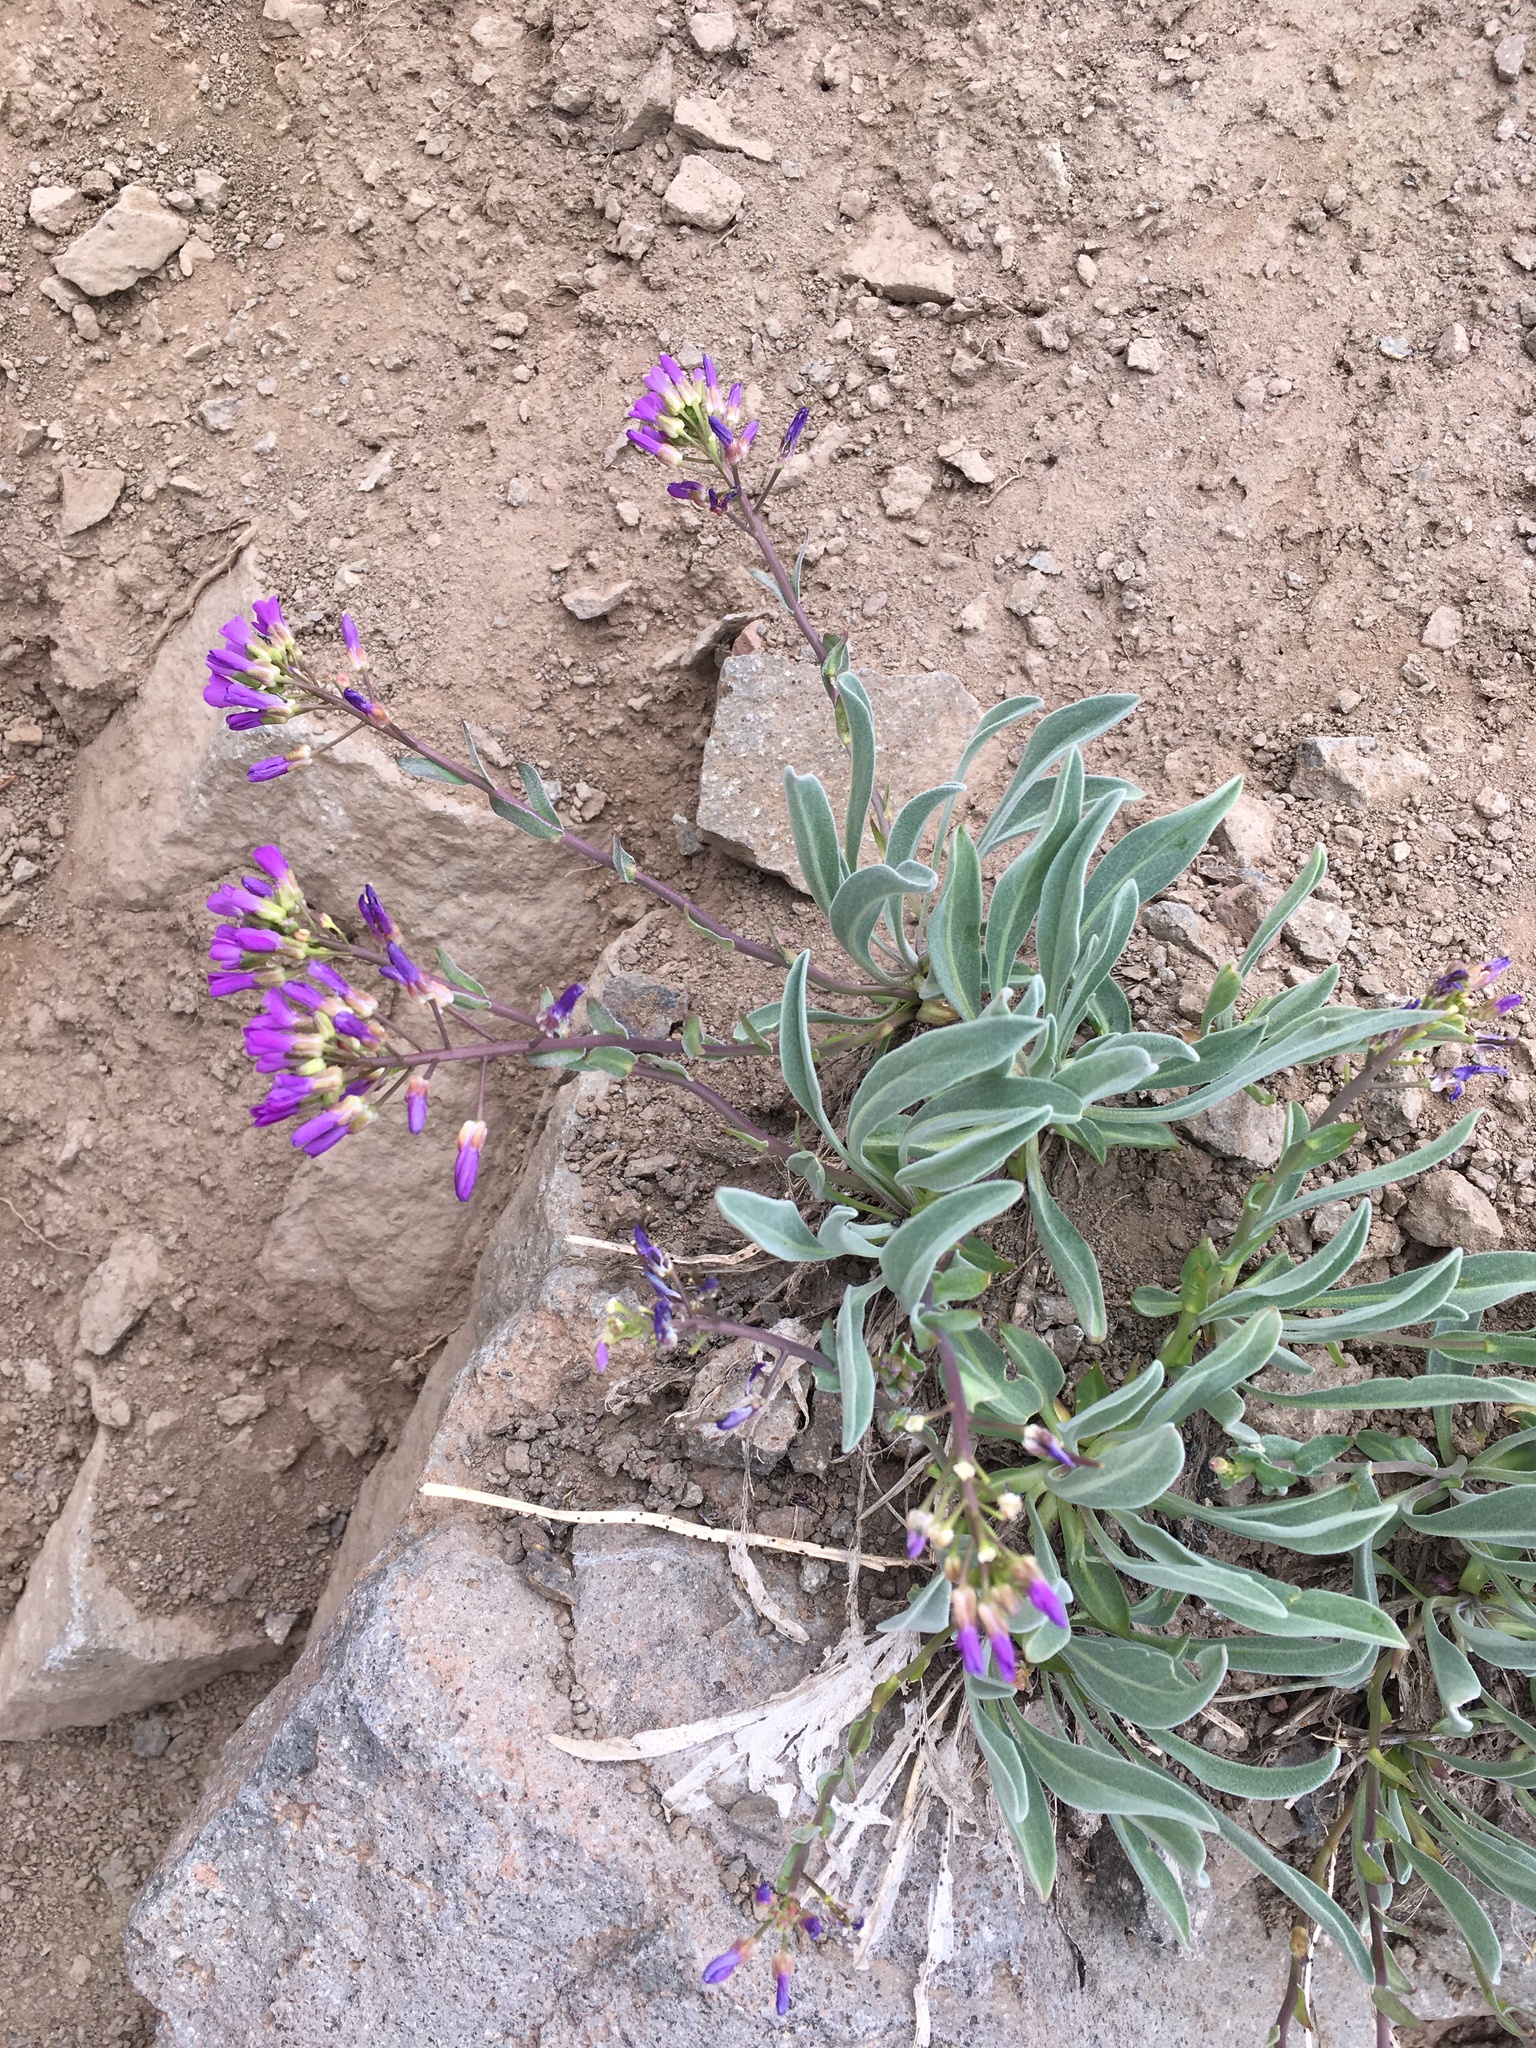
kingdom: Plantae
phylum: Tracheophyta
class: Magnoliopsida
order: Brassicales
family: Brassicaceae
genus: Phoenicaulis
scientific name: Phoenicaulis cheiranthoides
